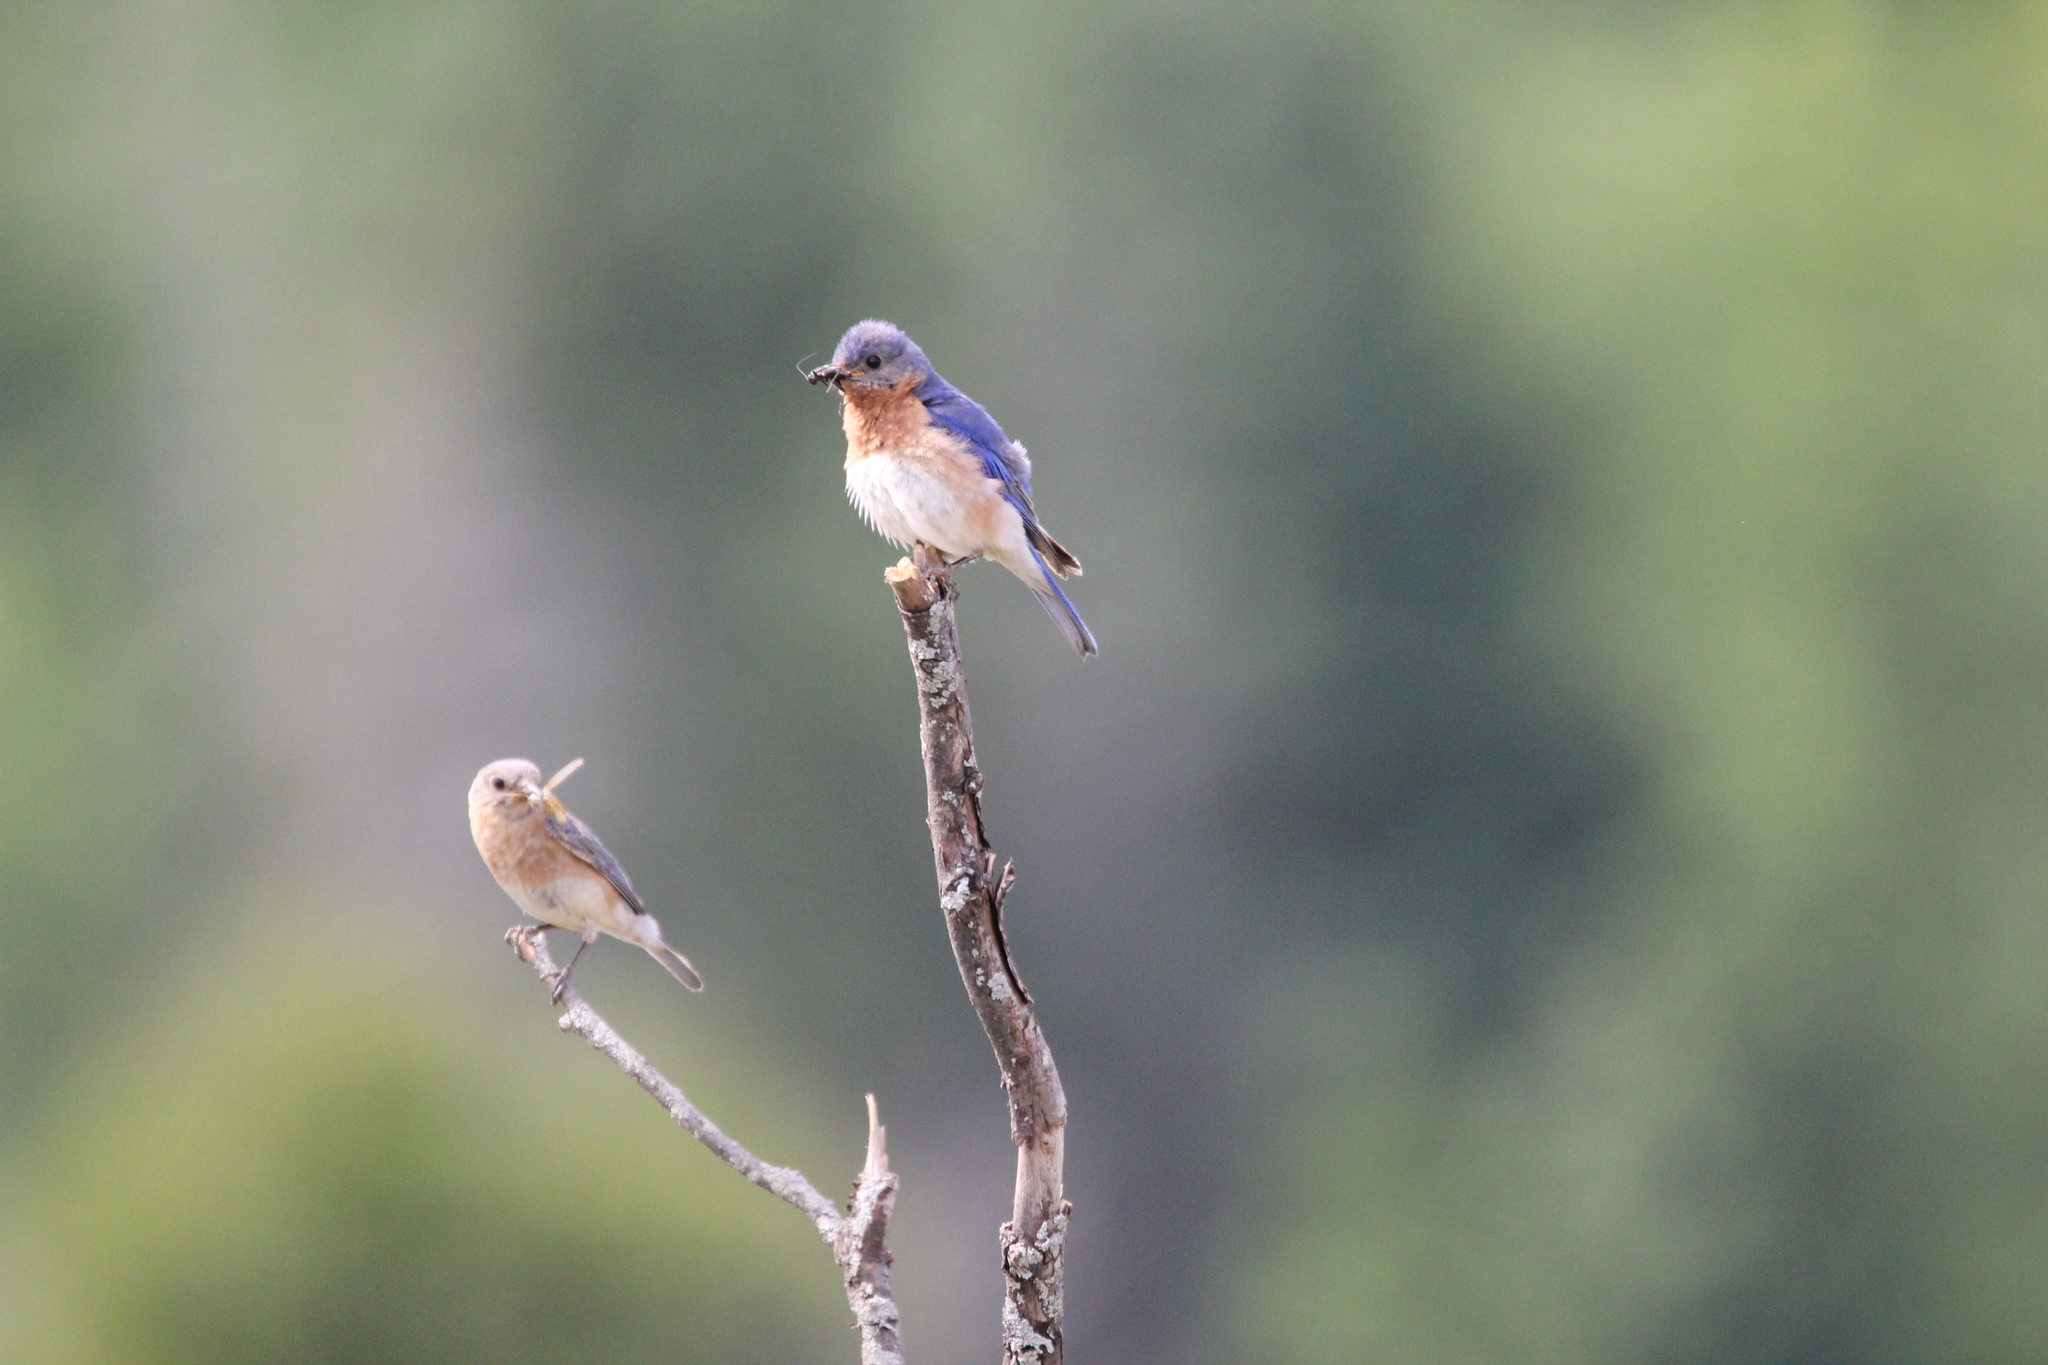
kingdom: Animalia
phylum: Chordata
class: Aves
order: Passeriformes
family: Turdidae
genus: Sialia
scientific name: Sialia sialis
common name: Eastern bluebird
